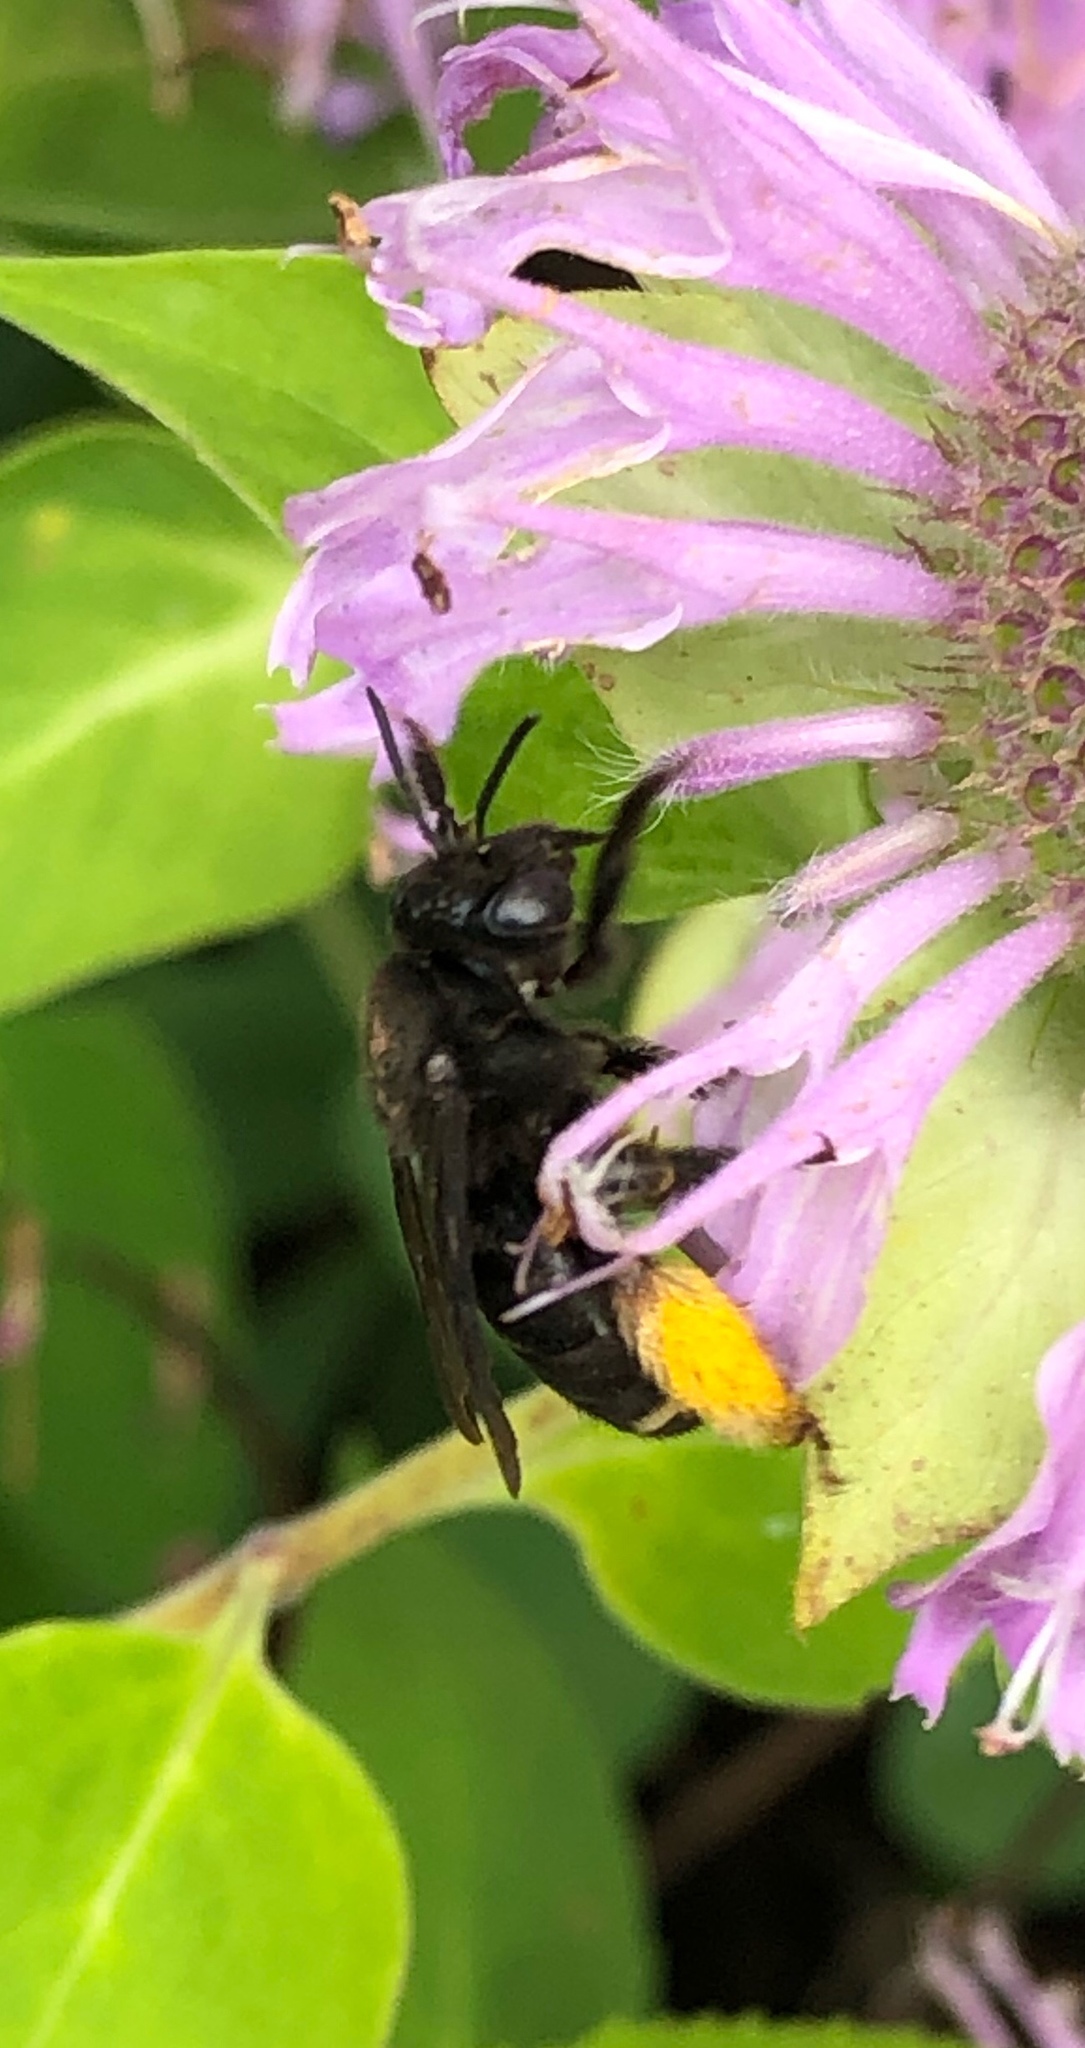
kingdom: Animalia
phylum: Arthropoda
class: Insecta
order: Hymenoptera
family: Apidae
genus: Melissodes
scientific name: Melissodes bimaculatus
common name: Two-spotted long-horned bee
